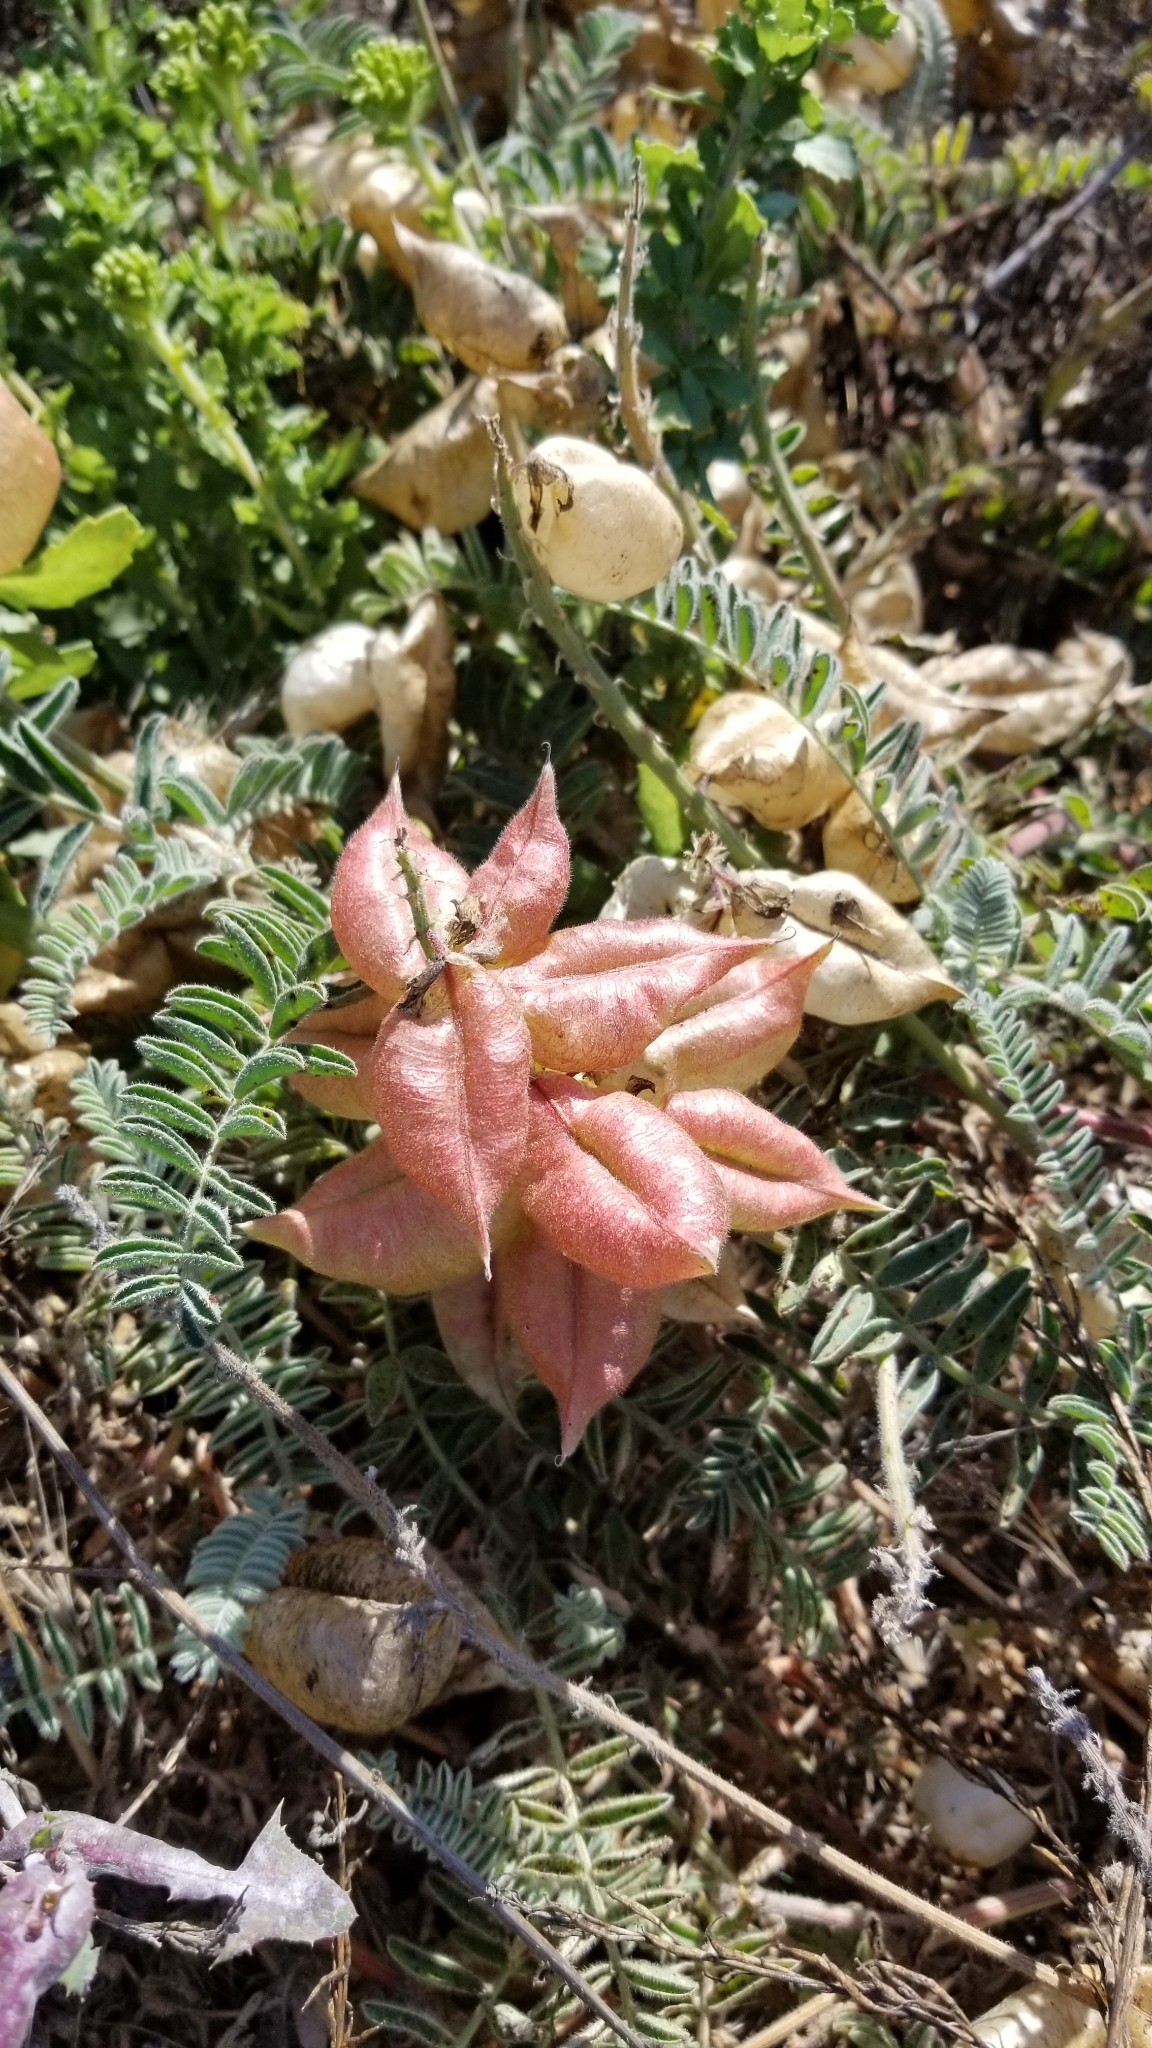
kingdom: Plantae
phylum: Tracheophyta
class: Magnoliopsida
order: Fabales
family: Fabaceae
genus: Astragalus
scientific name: Astragalus nuttallii
